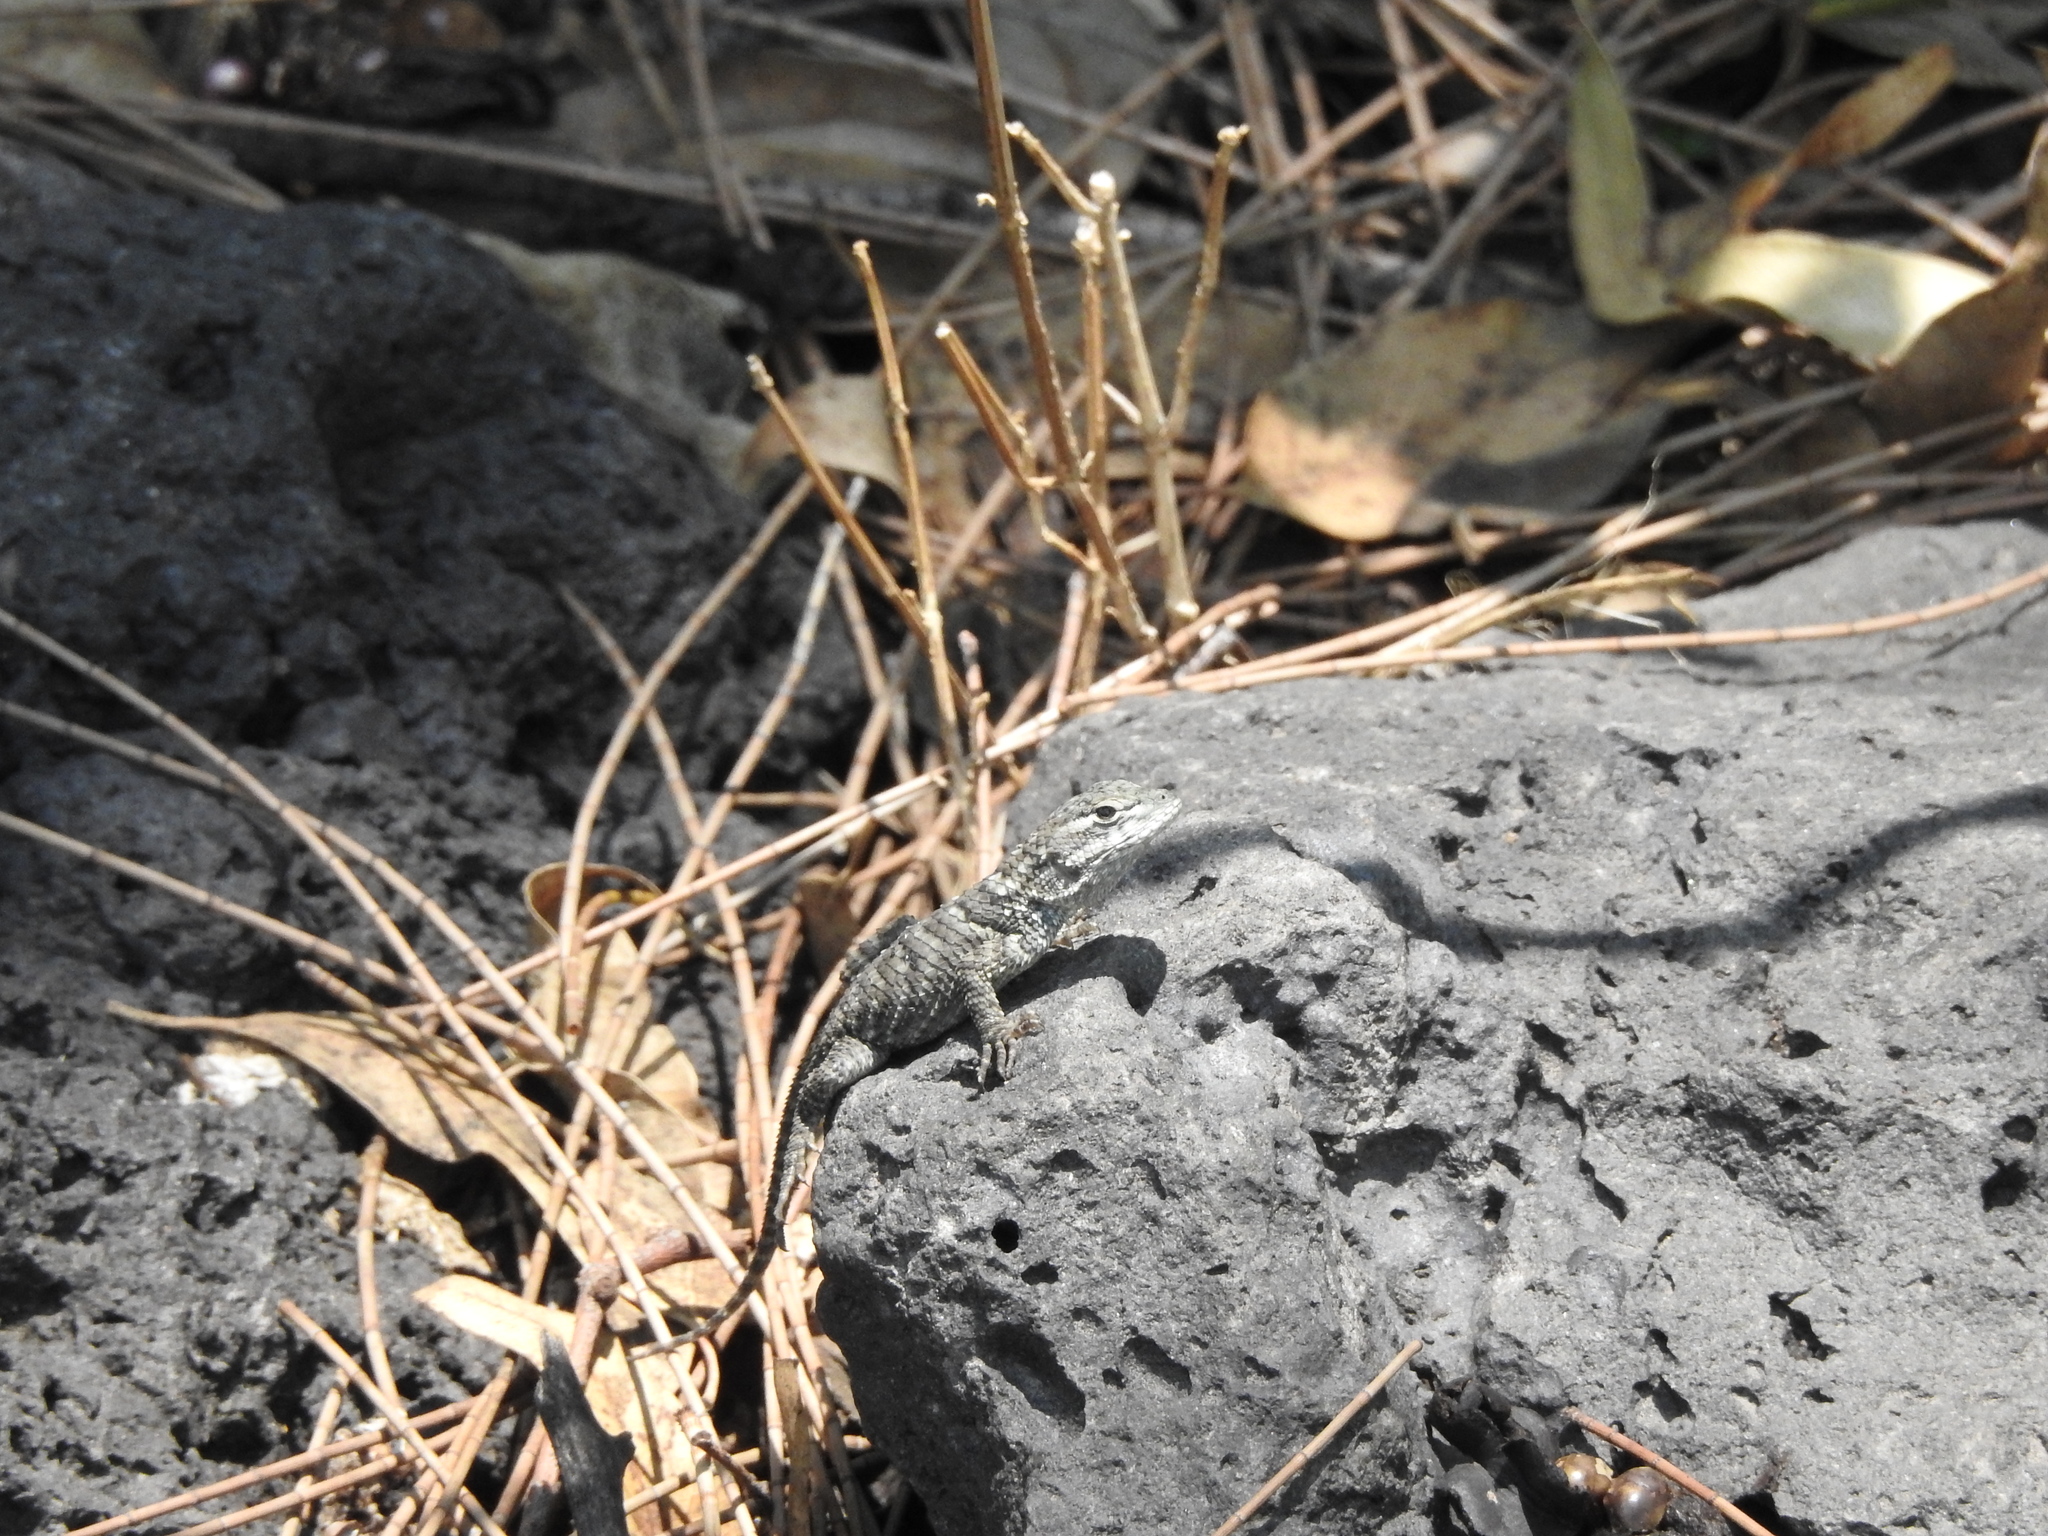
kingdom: Animalia
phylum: Chordata
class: Squamata
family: Phrynosomatidae
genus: Sceloporus
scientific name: Sceloporus torquatus
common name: Central plateau torquate lizard [melanogaster]
